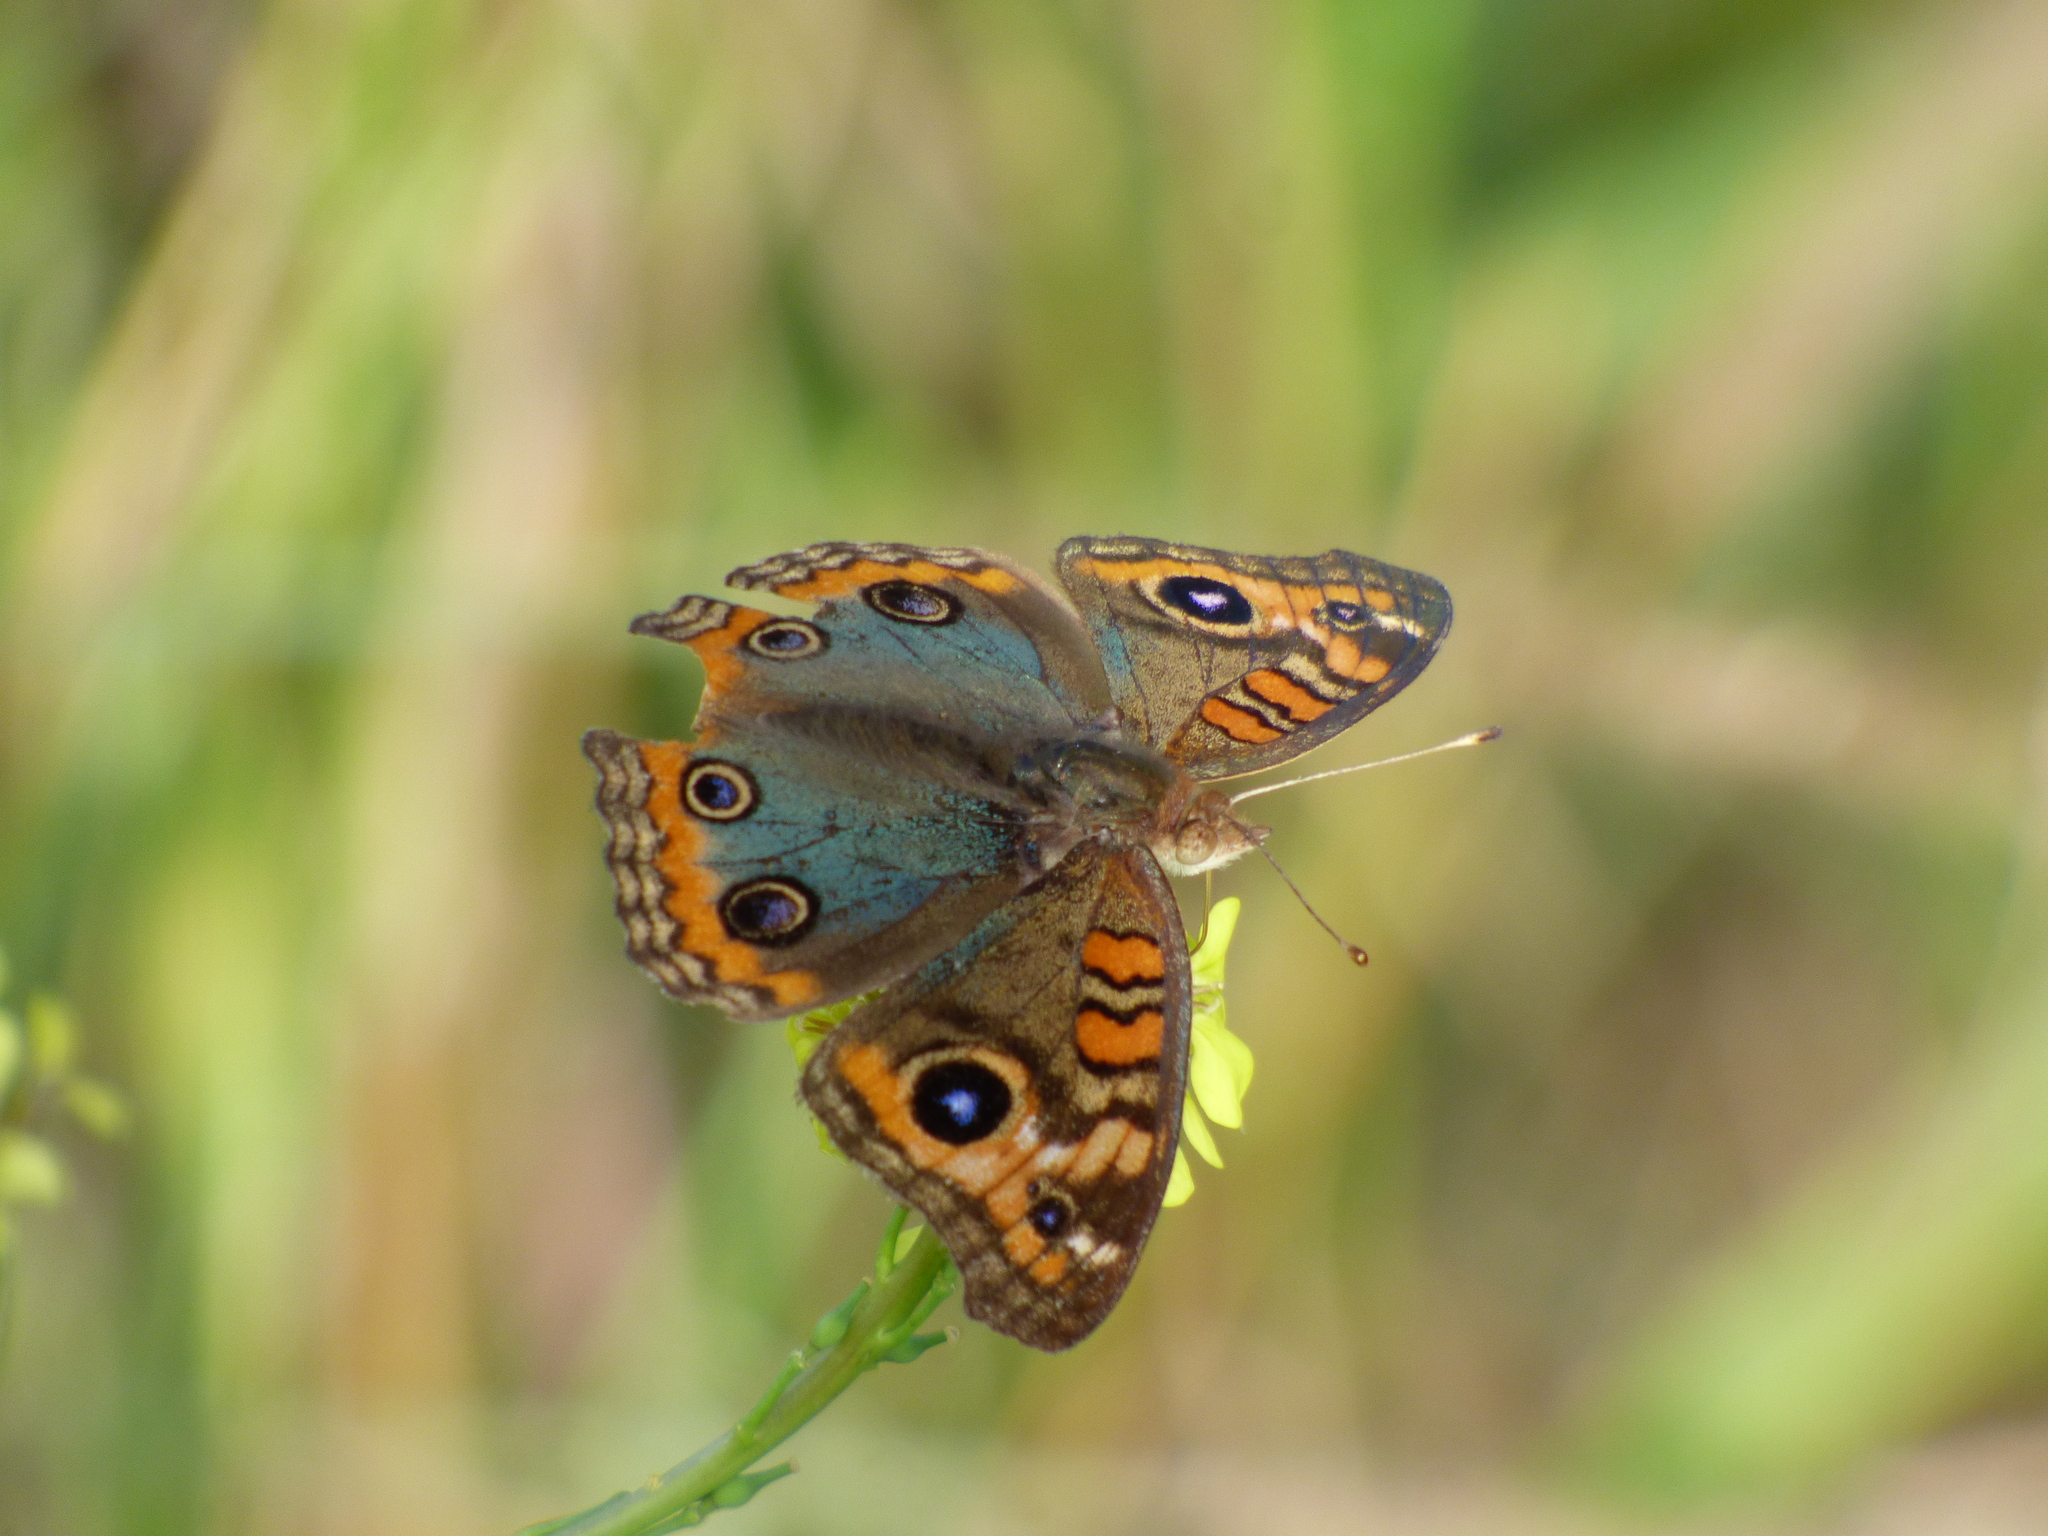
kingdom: Animalia
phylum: Arthropoda
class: Insecta
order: Lepidoptera
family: Nymphalidae
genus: Junonia
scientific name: Junonia lavinia
